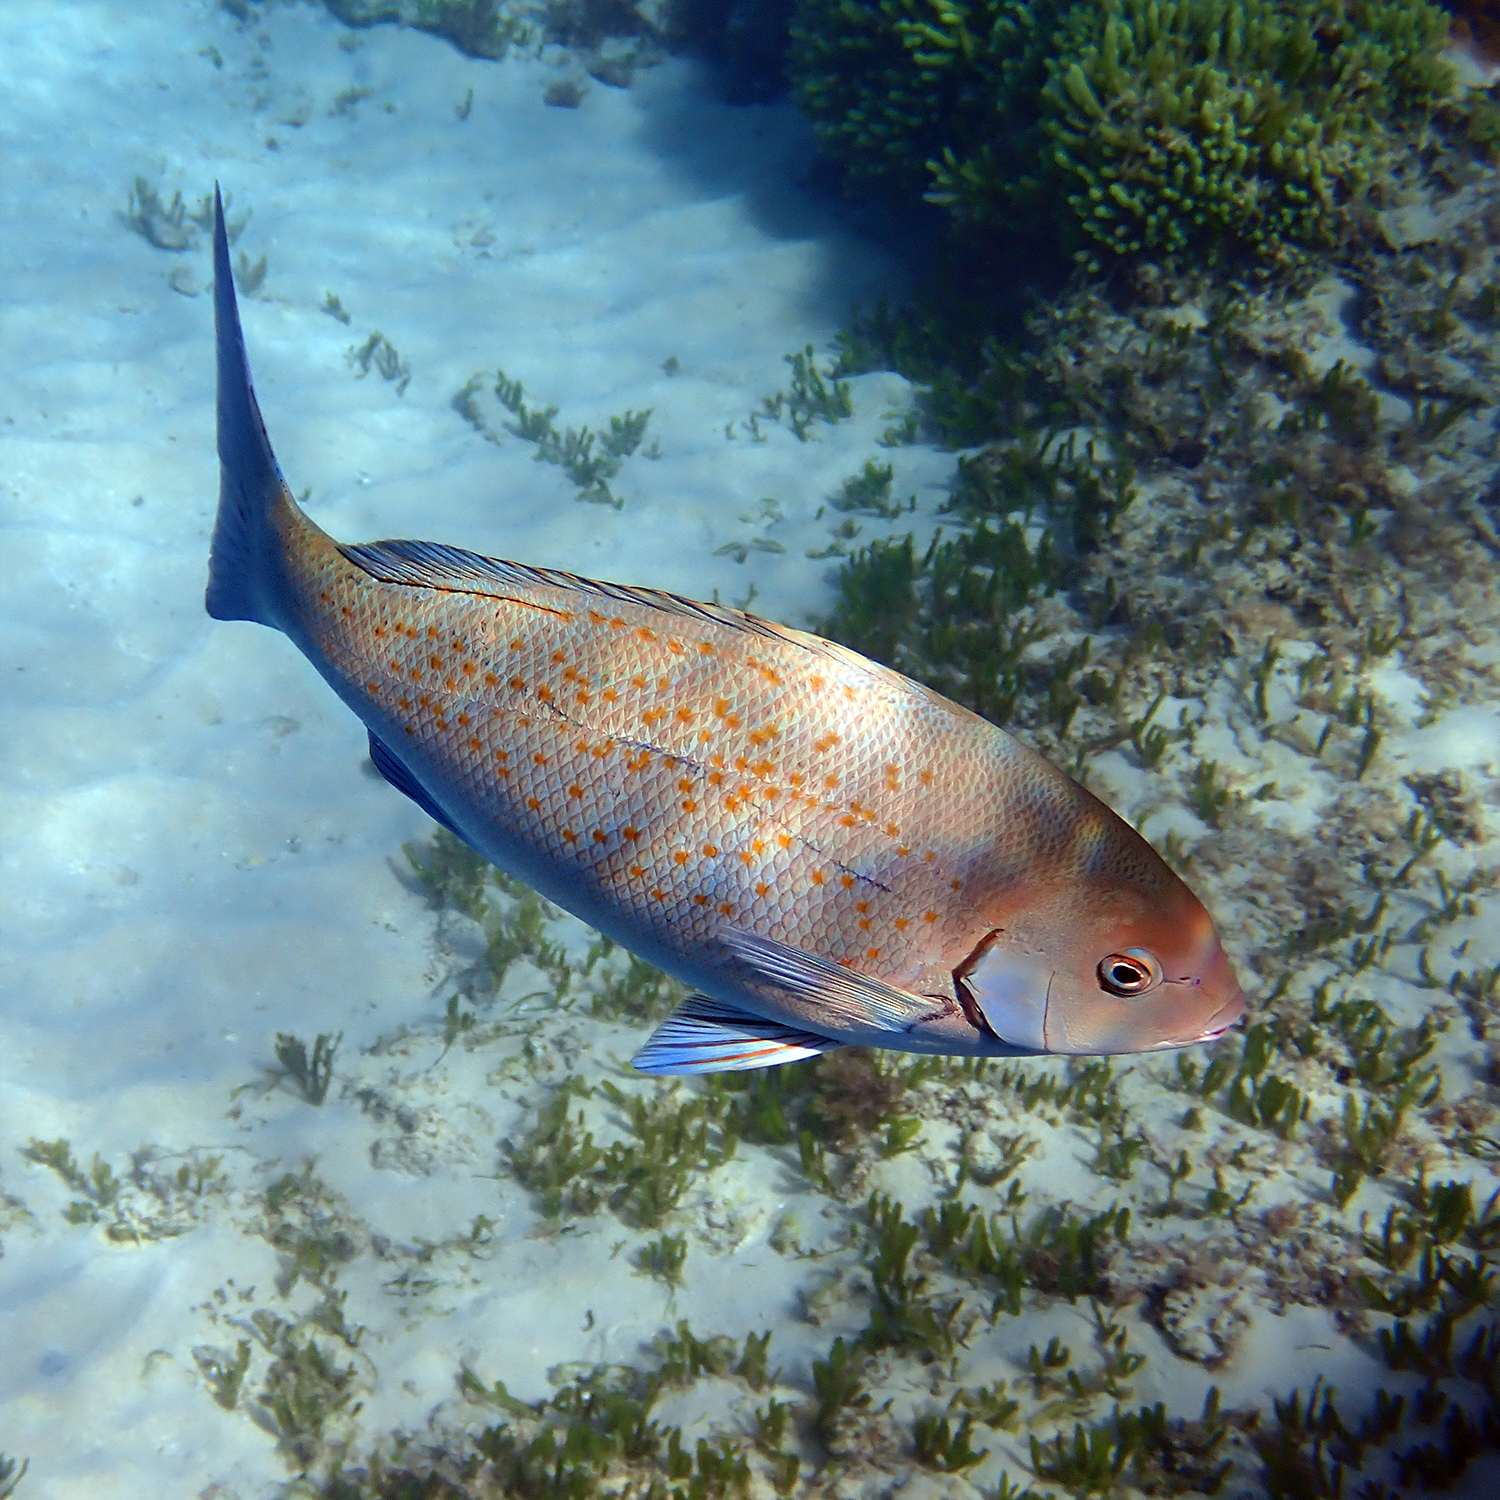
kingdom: Animalia
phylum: Chordata
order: Perciformes
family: Kyphosidae
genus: Girella
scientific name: Girella cyanea
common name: Bluefish
